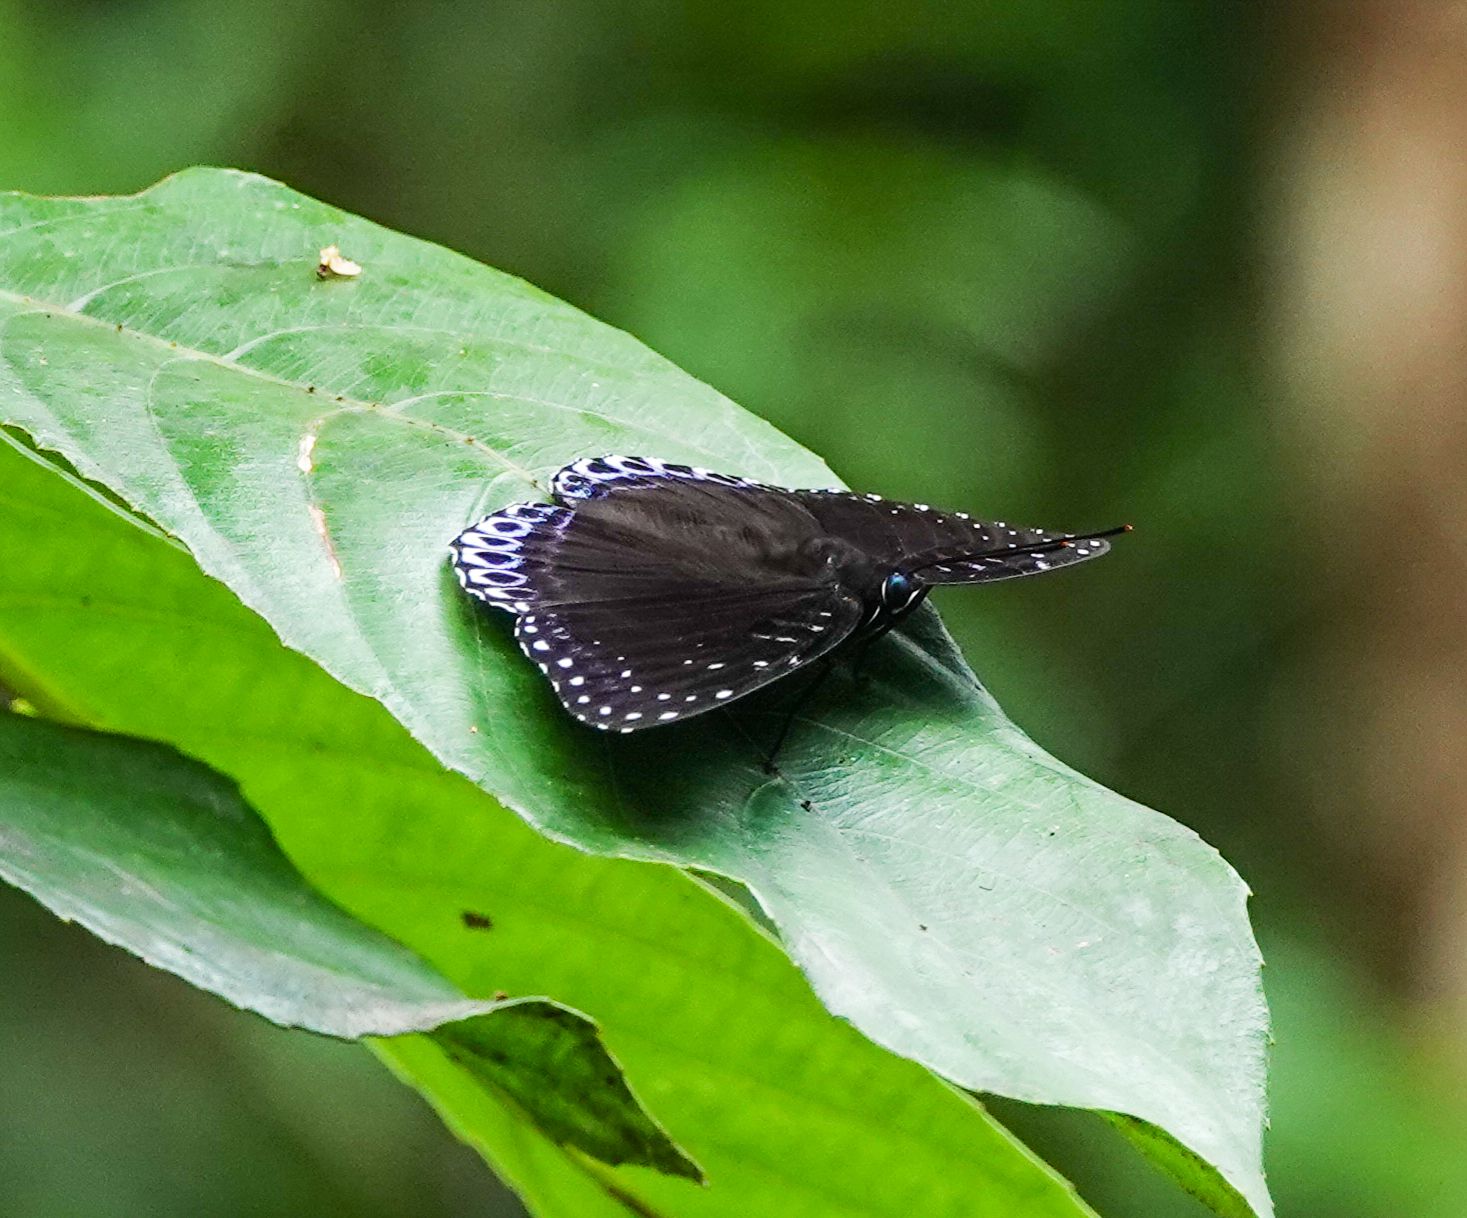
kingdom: Animalia
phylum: Arthropoda
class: Insecta
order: Lepidoptera
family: Nymphalidae
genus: Stibochiona
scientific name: Stibochiona nicea
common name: Popinjay
